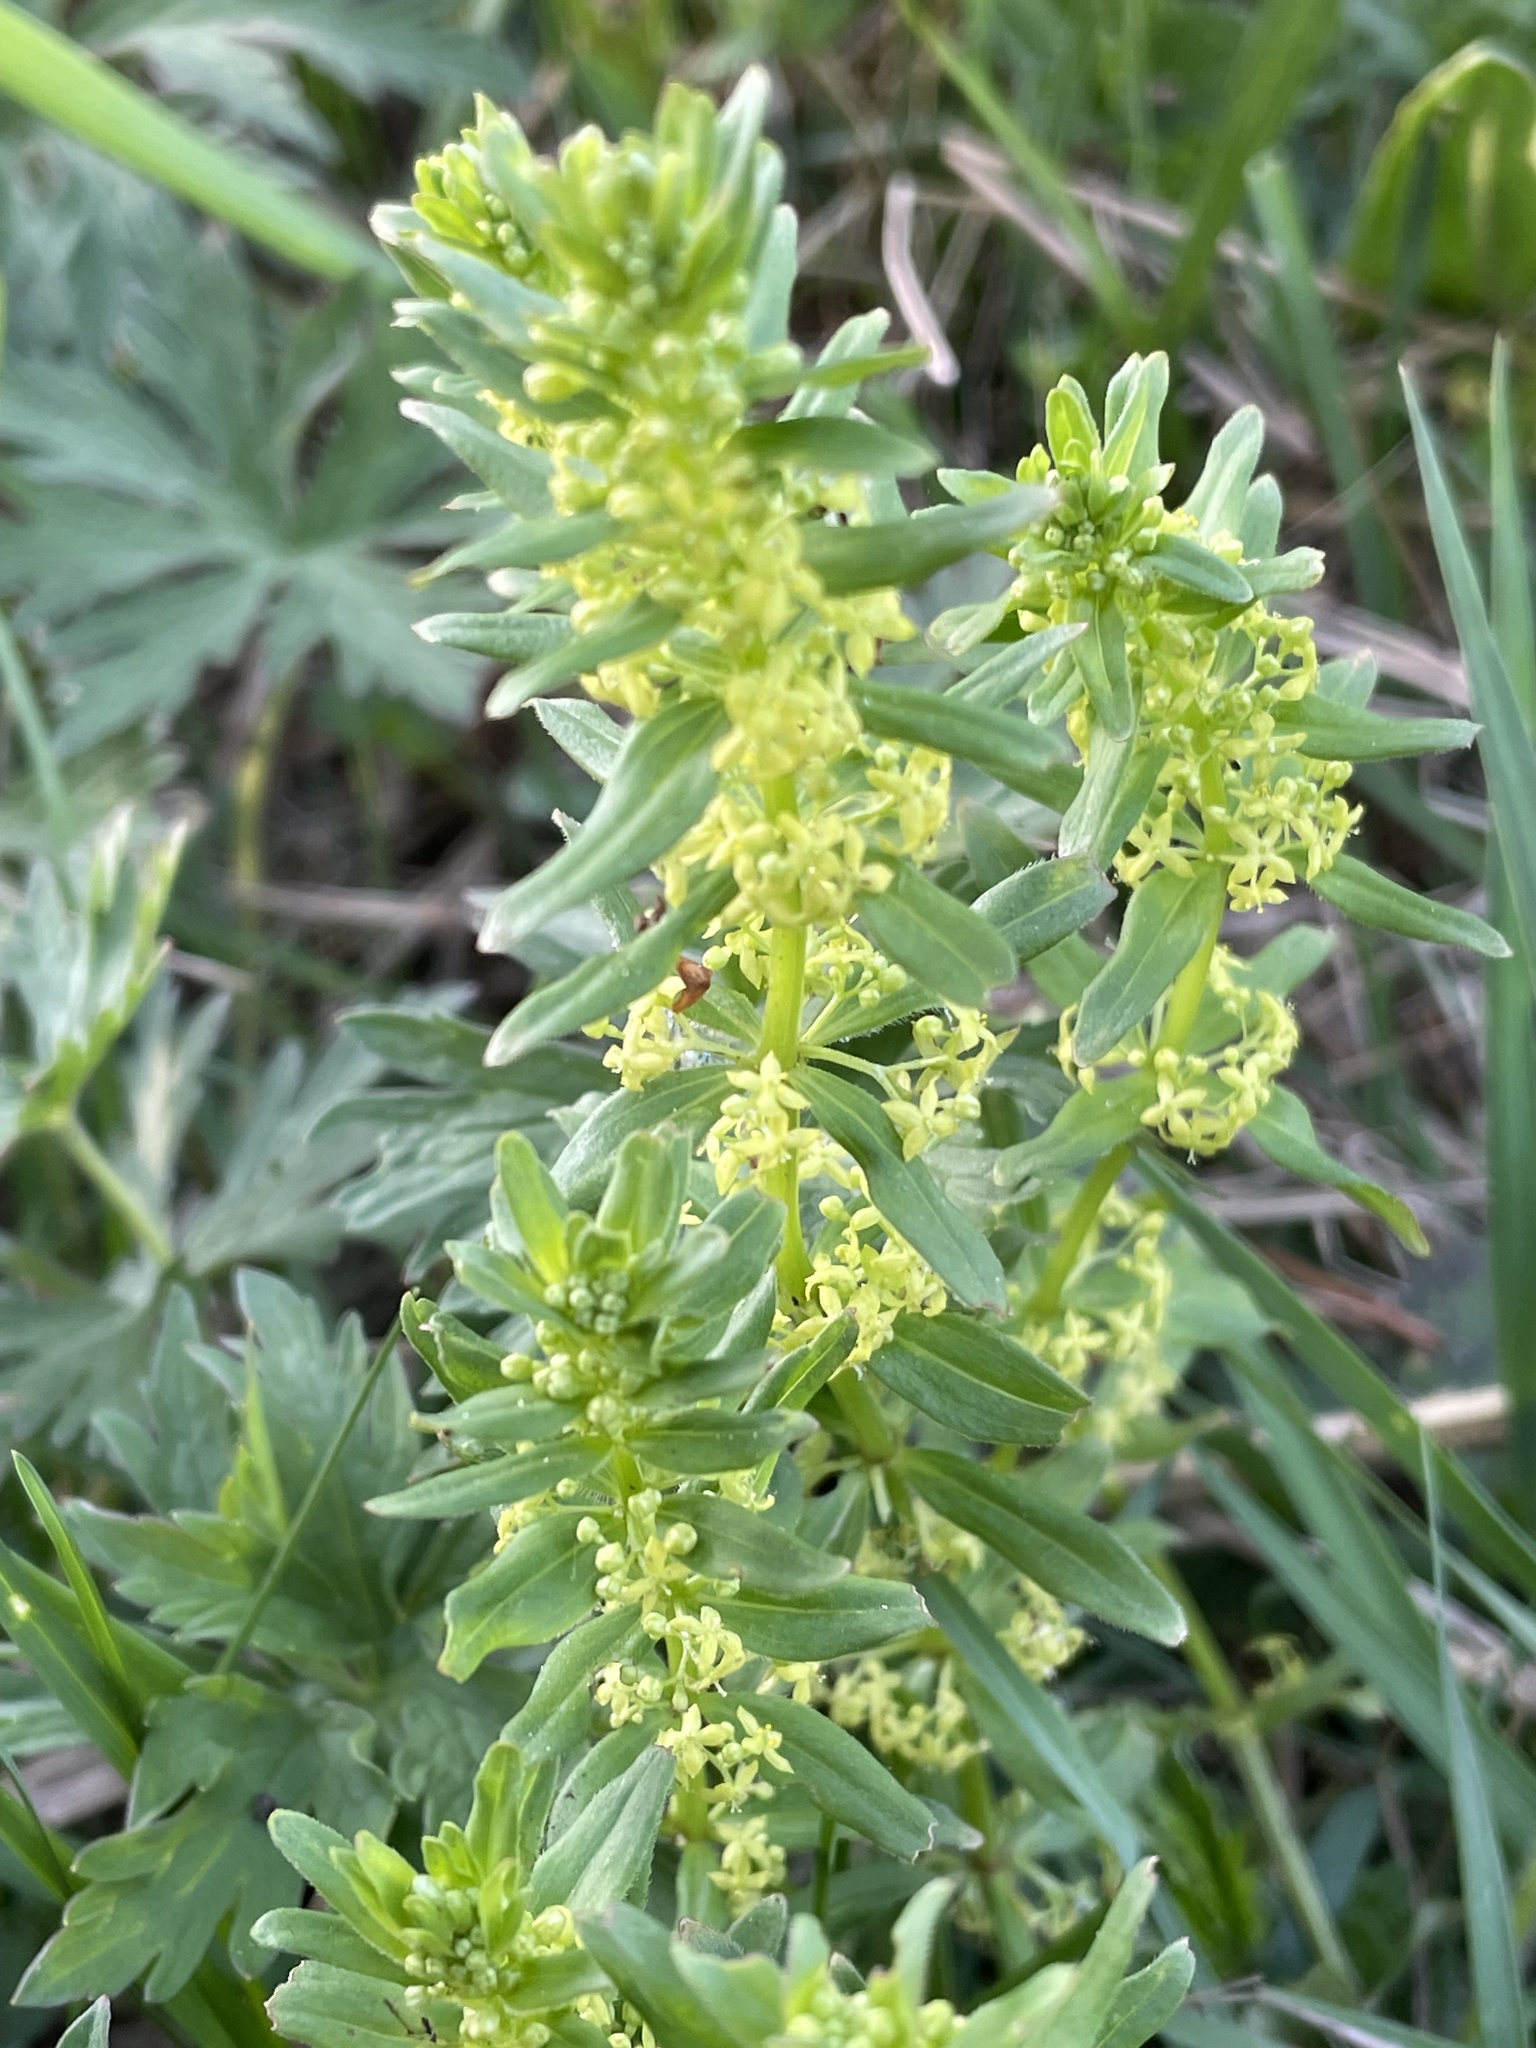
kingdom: Plantae
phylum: Tracheophyta
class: Magnoliopsida
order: Gentianales
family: Rubiaceae
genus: Cruciata
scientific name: Cruciata glabra
